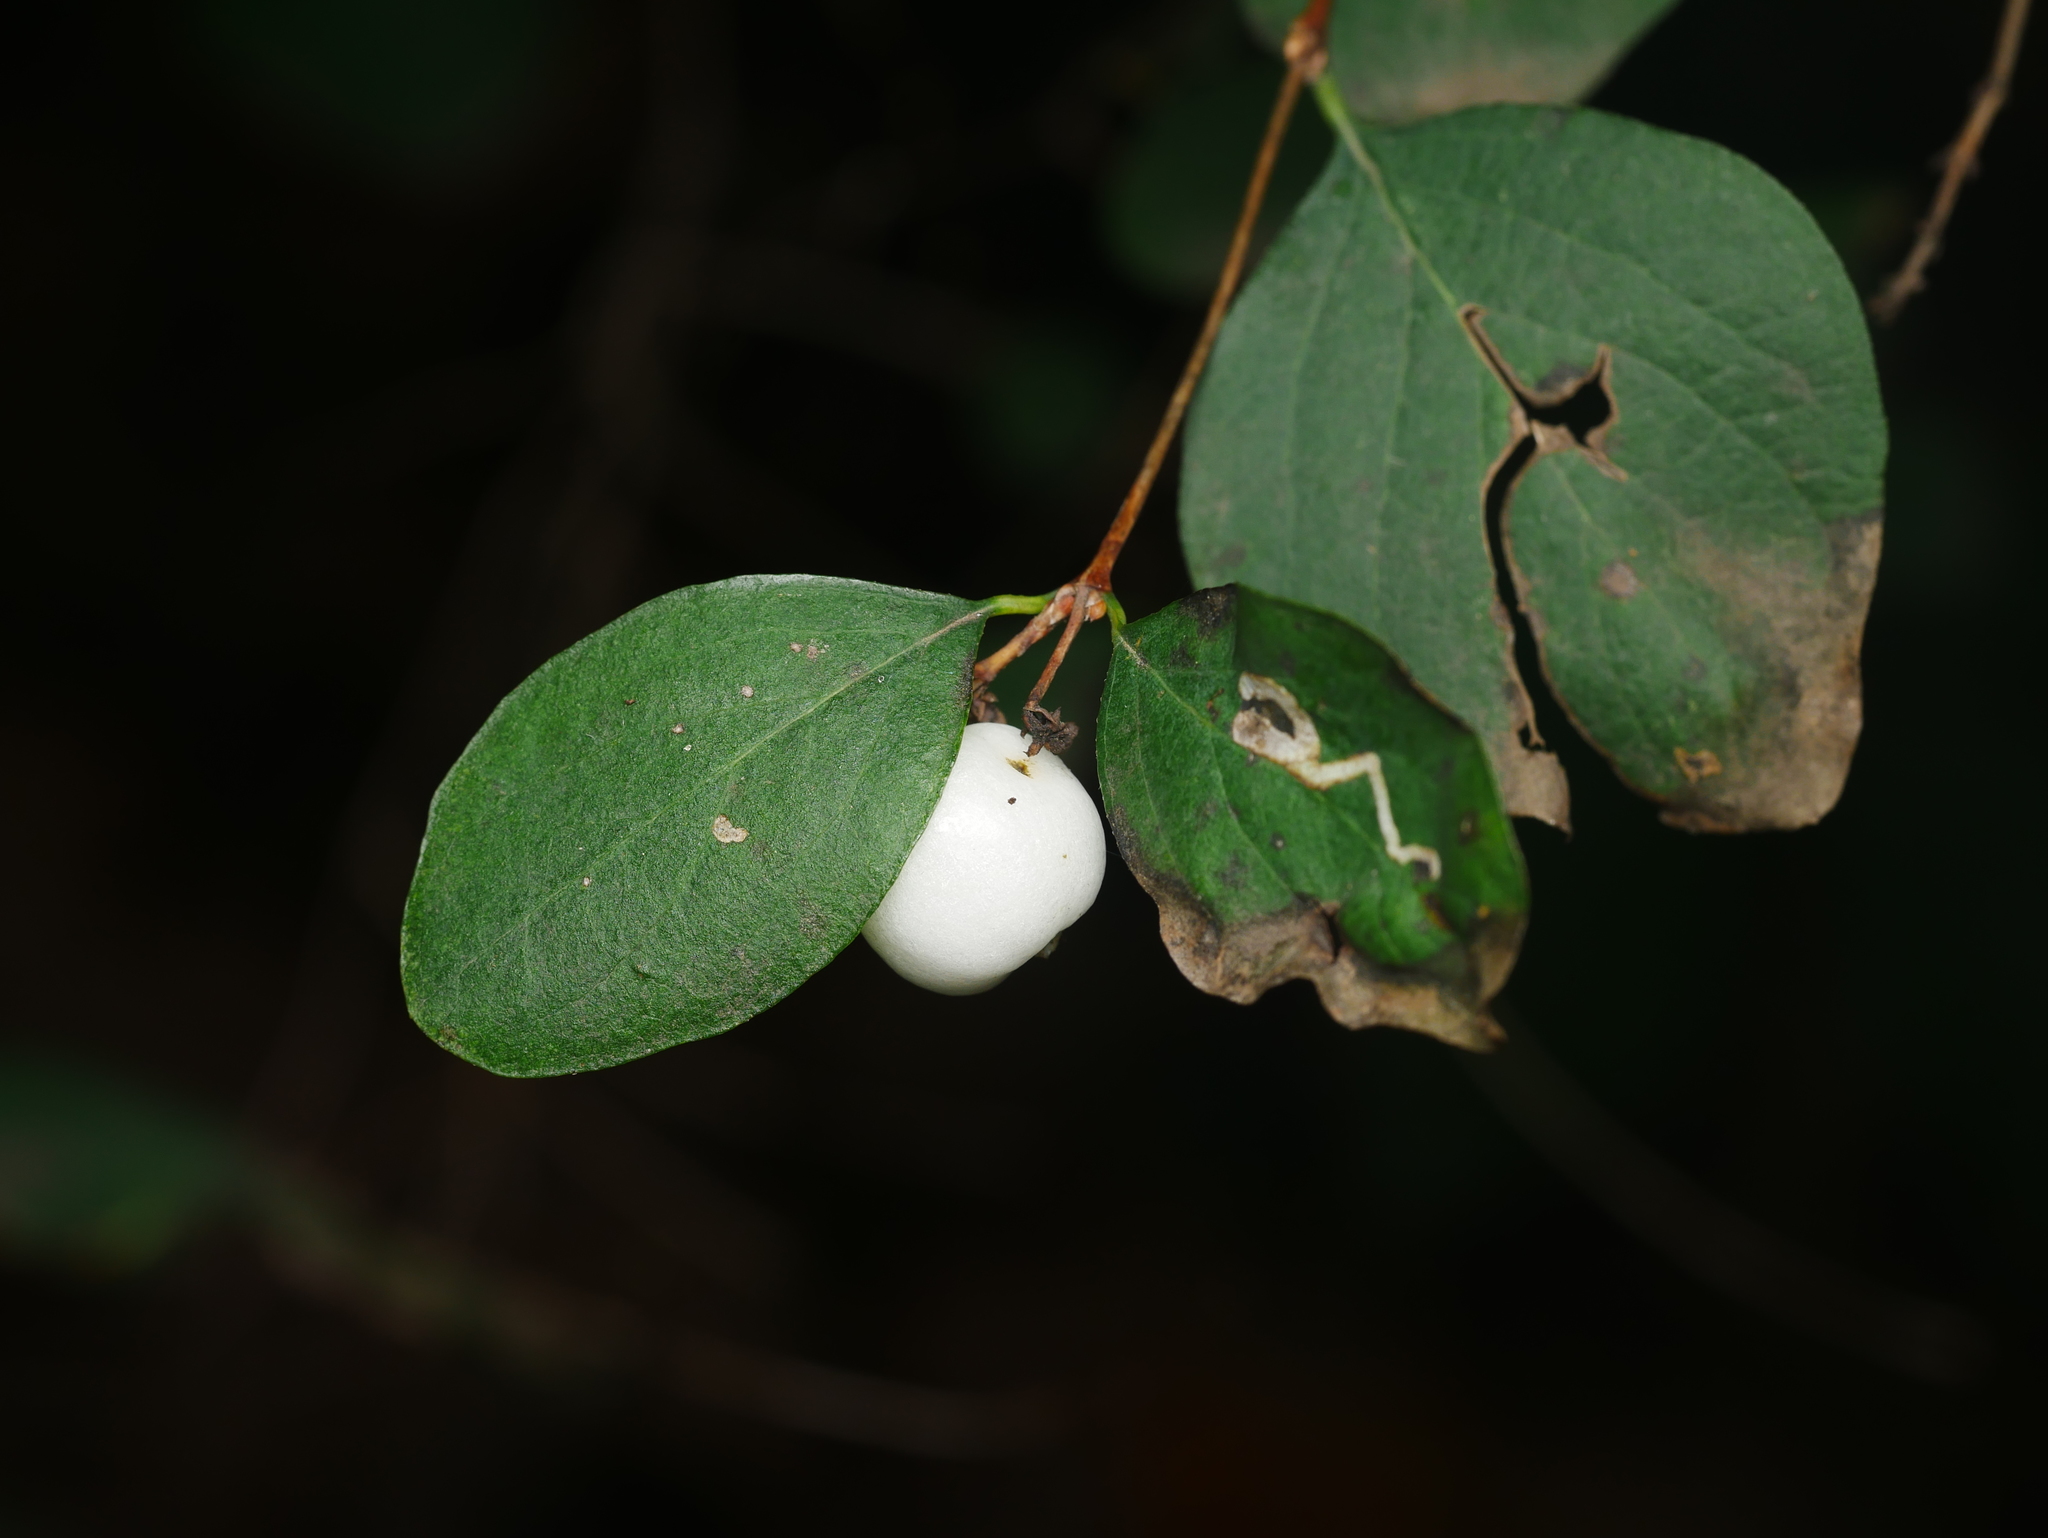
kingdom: Plantae
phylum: Tracheophyta
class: Magnoliopsida
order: Dipsacales
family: Caprifoliaceae
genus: Symphoricarpos
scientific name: Symphoricarpos albus
